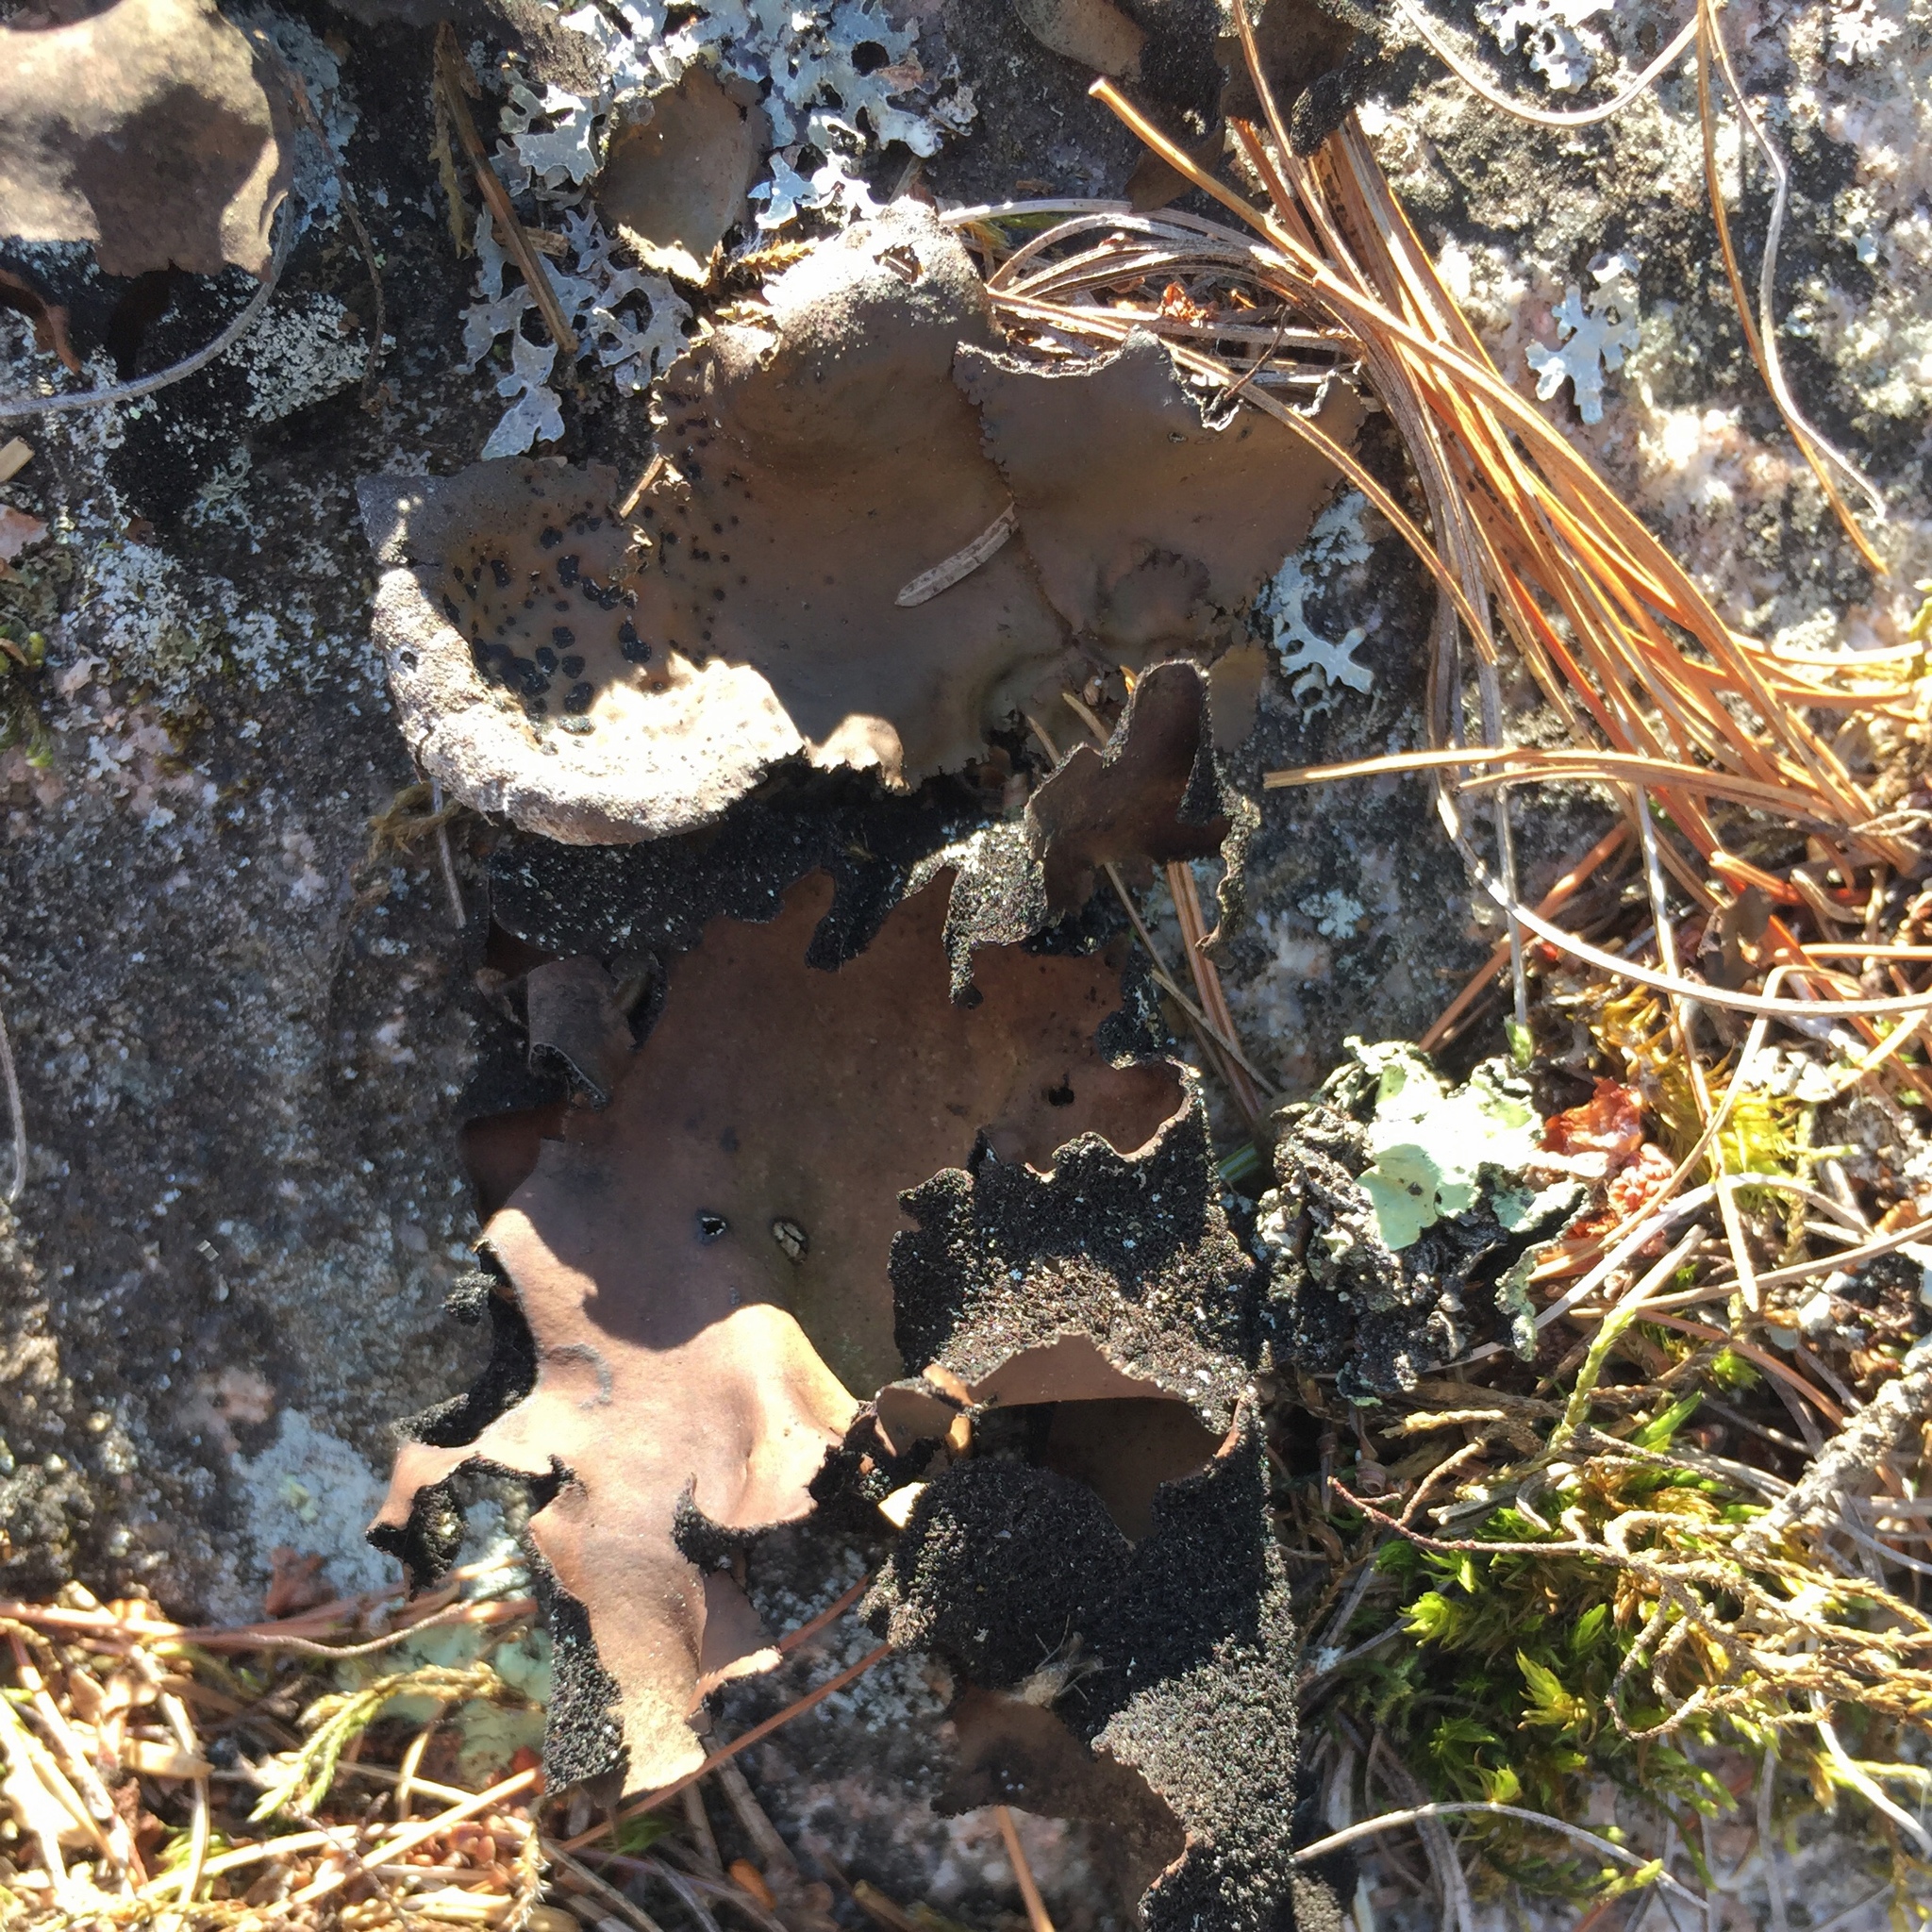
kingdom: Fungi
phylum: Ascomycota
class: Lecanoromycetes
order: Umbilicariales
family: Umbilicariaceae
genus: Umbilicaria
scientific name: Umbilicaria muhlenbergii
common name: Lesser rocktripe
